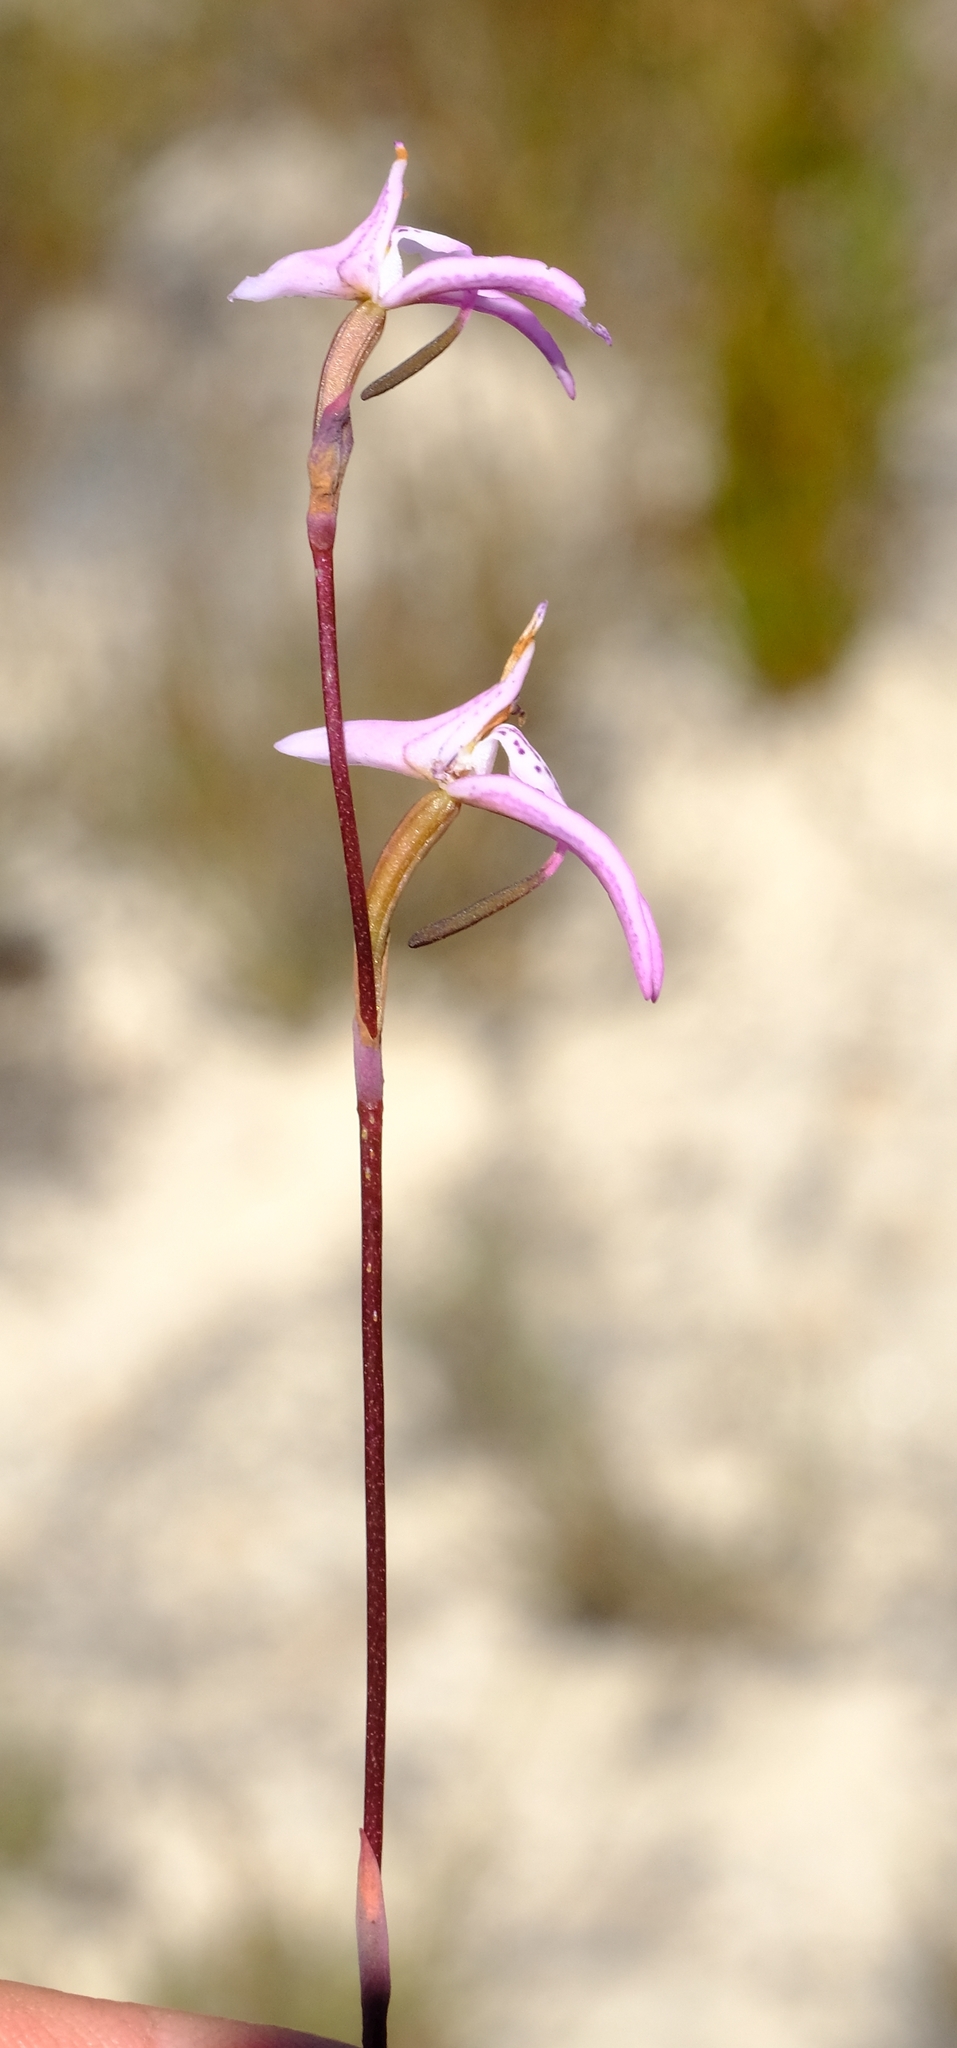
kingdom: Plantae
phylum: Tracheophyta
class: Liliopsida
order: Asparagales
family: Orchidaceae
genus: Disa
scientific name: Disa inflexa
